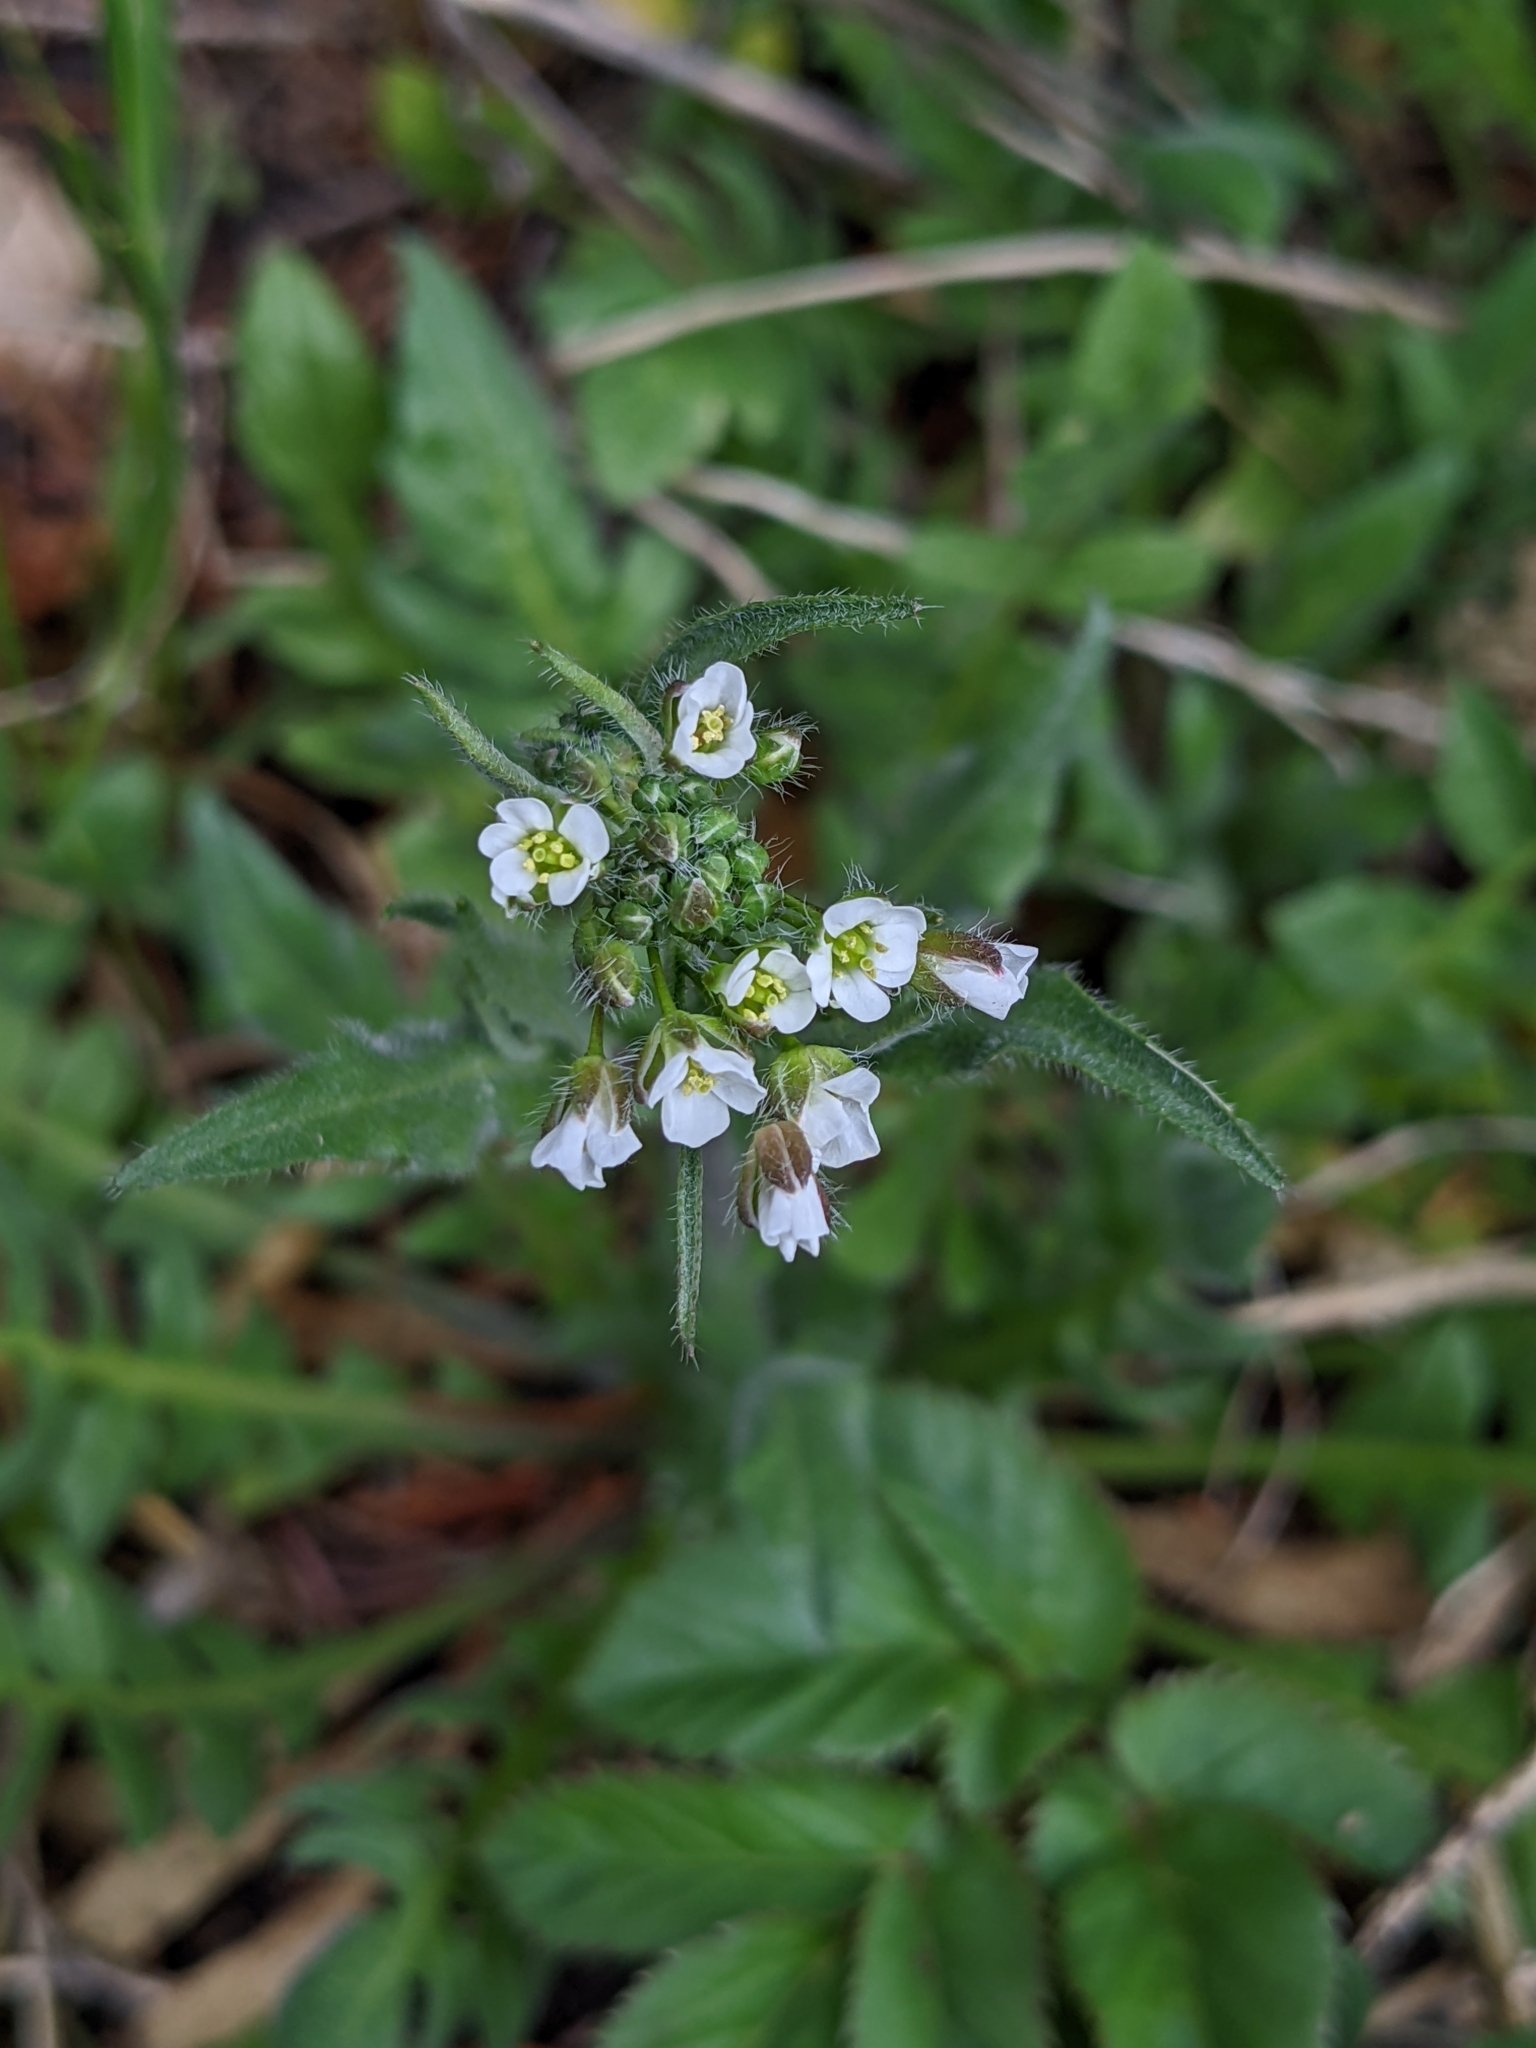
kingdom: Plantae
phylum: Tracheophyta
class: Magnoliopsida
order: Brassicales
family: Brassicaceae
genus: Capsella
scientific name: Capsella bursa-pastoris
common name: Shepherd's purse
